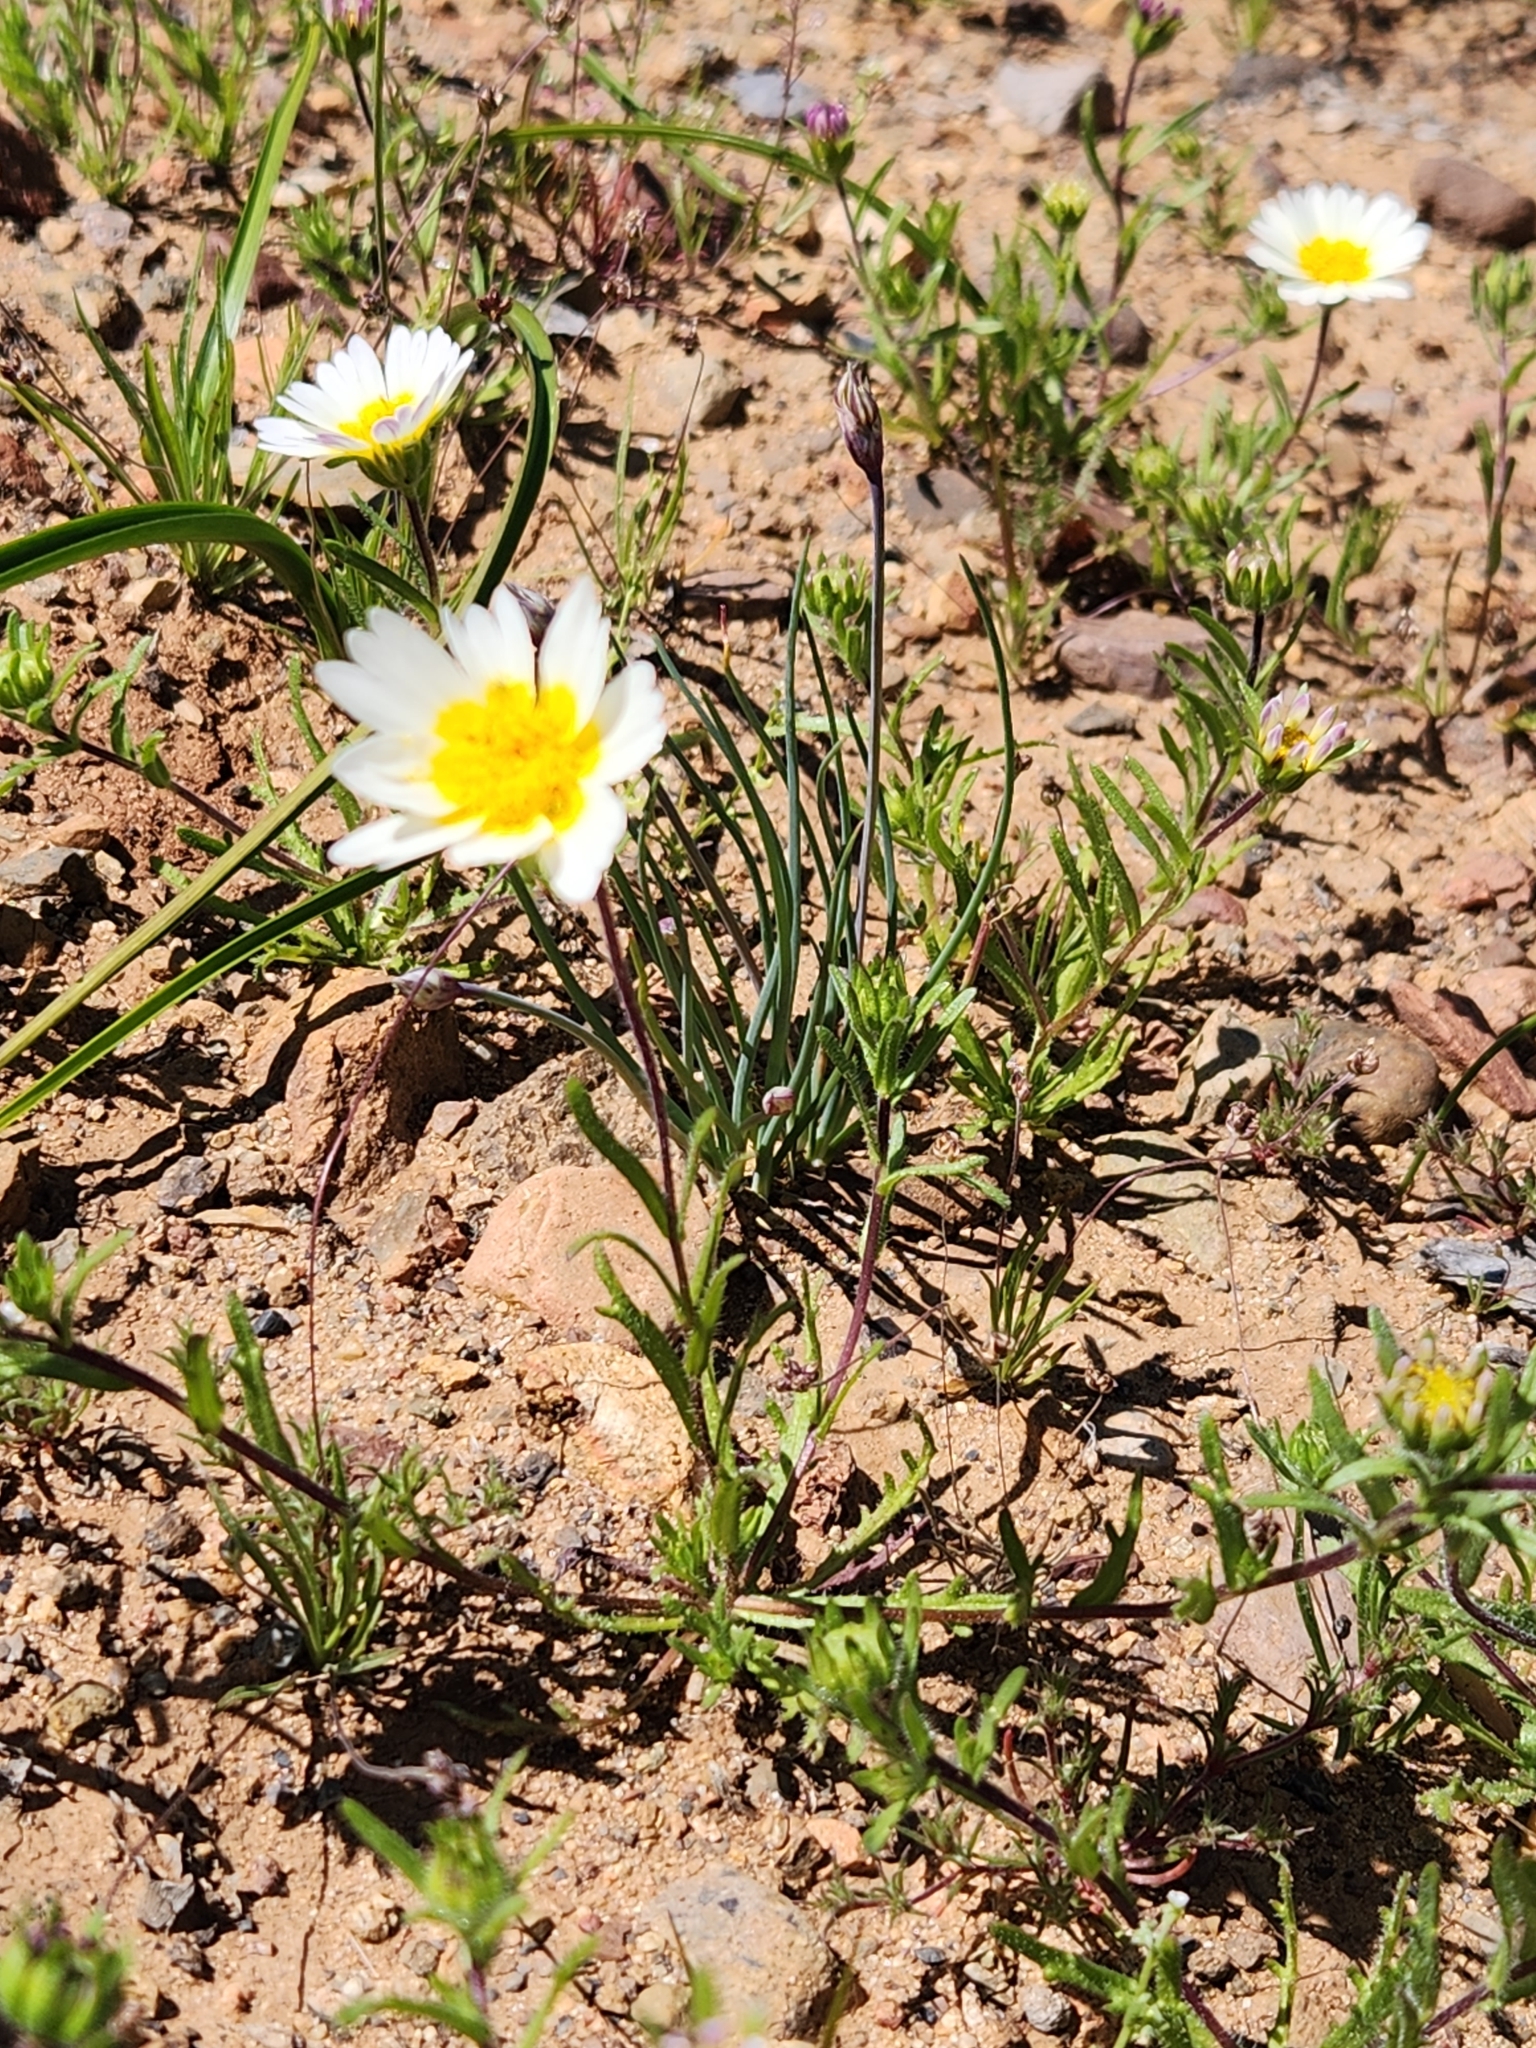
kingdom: Plantae
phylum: Tracheophyta
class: Magnoliopsida
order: Asterales
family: Asteraceae
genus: Layia
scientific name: Layia platyglossa
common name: Tidy-tips
